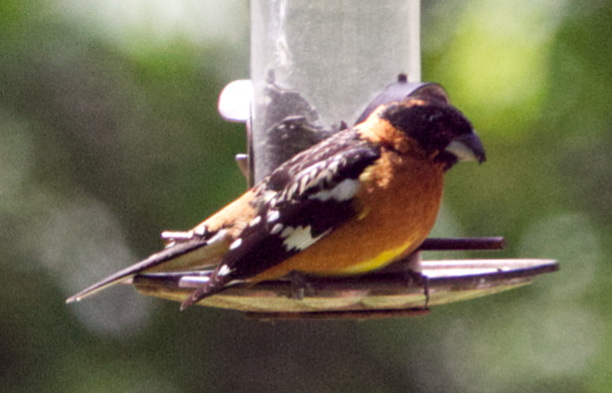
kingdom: Animalia
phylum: Chordata
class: Aves
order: Passeriformes
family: Cardinalidae
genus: Pheucticus
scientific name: Pheucticus melanocephalus
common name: Black-headed grosbeak
